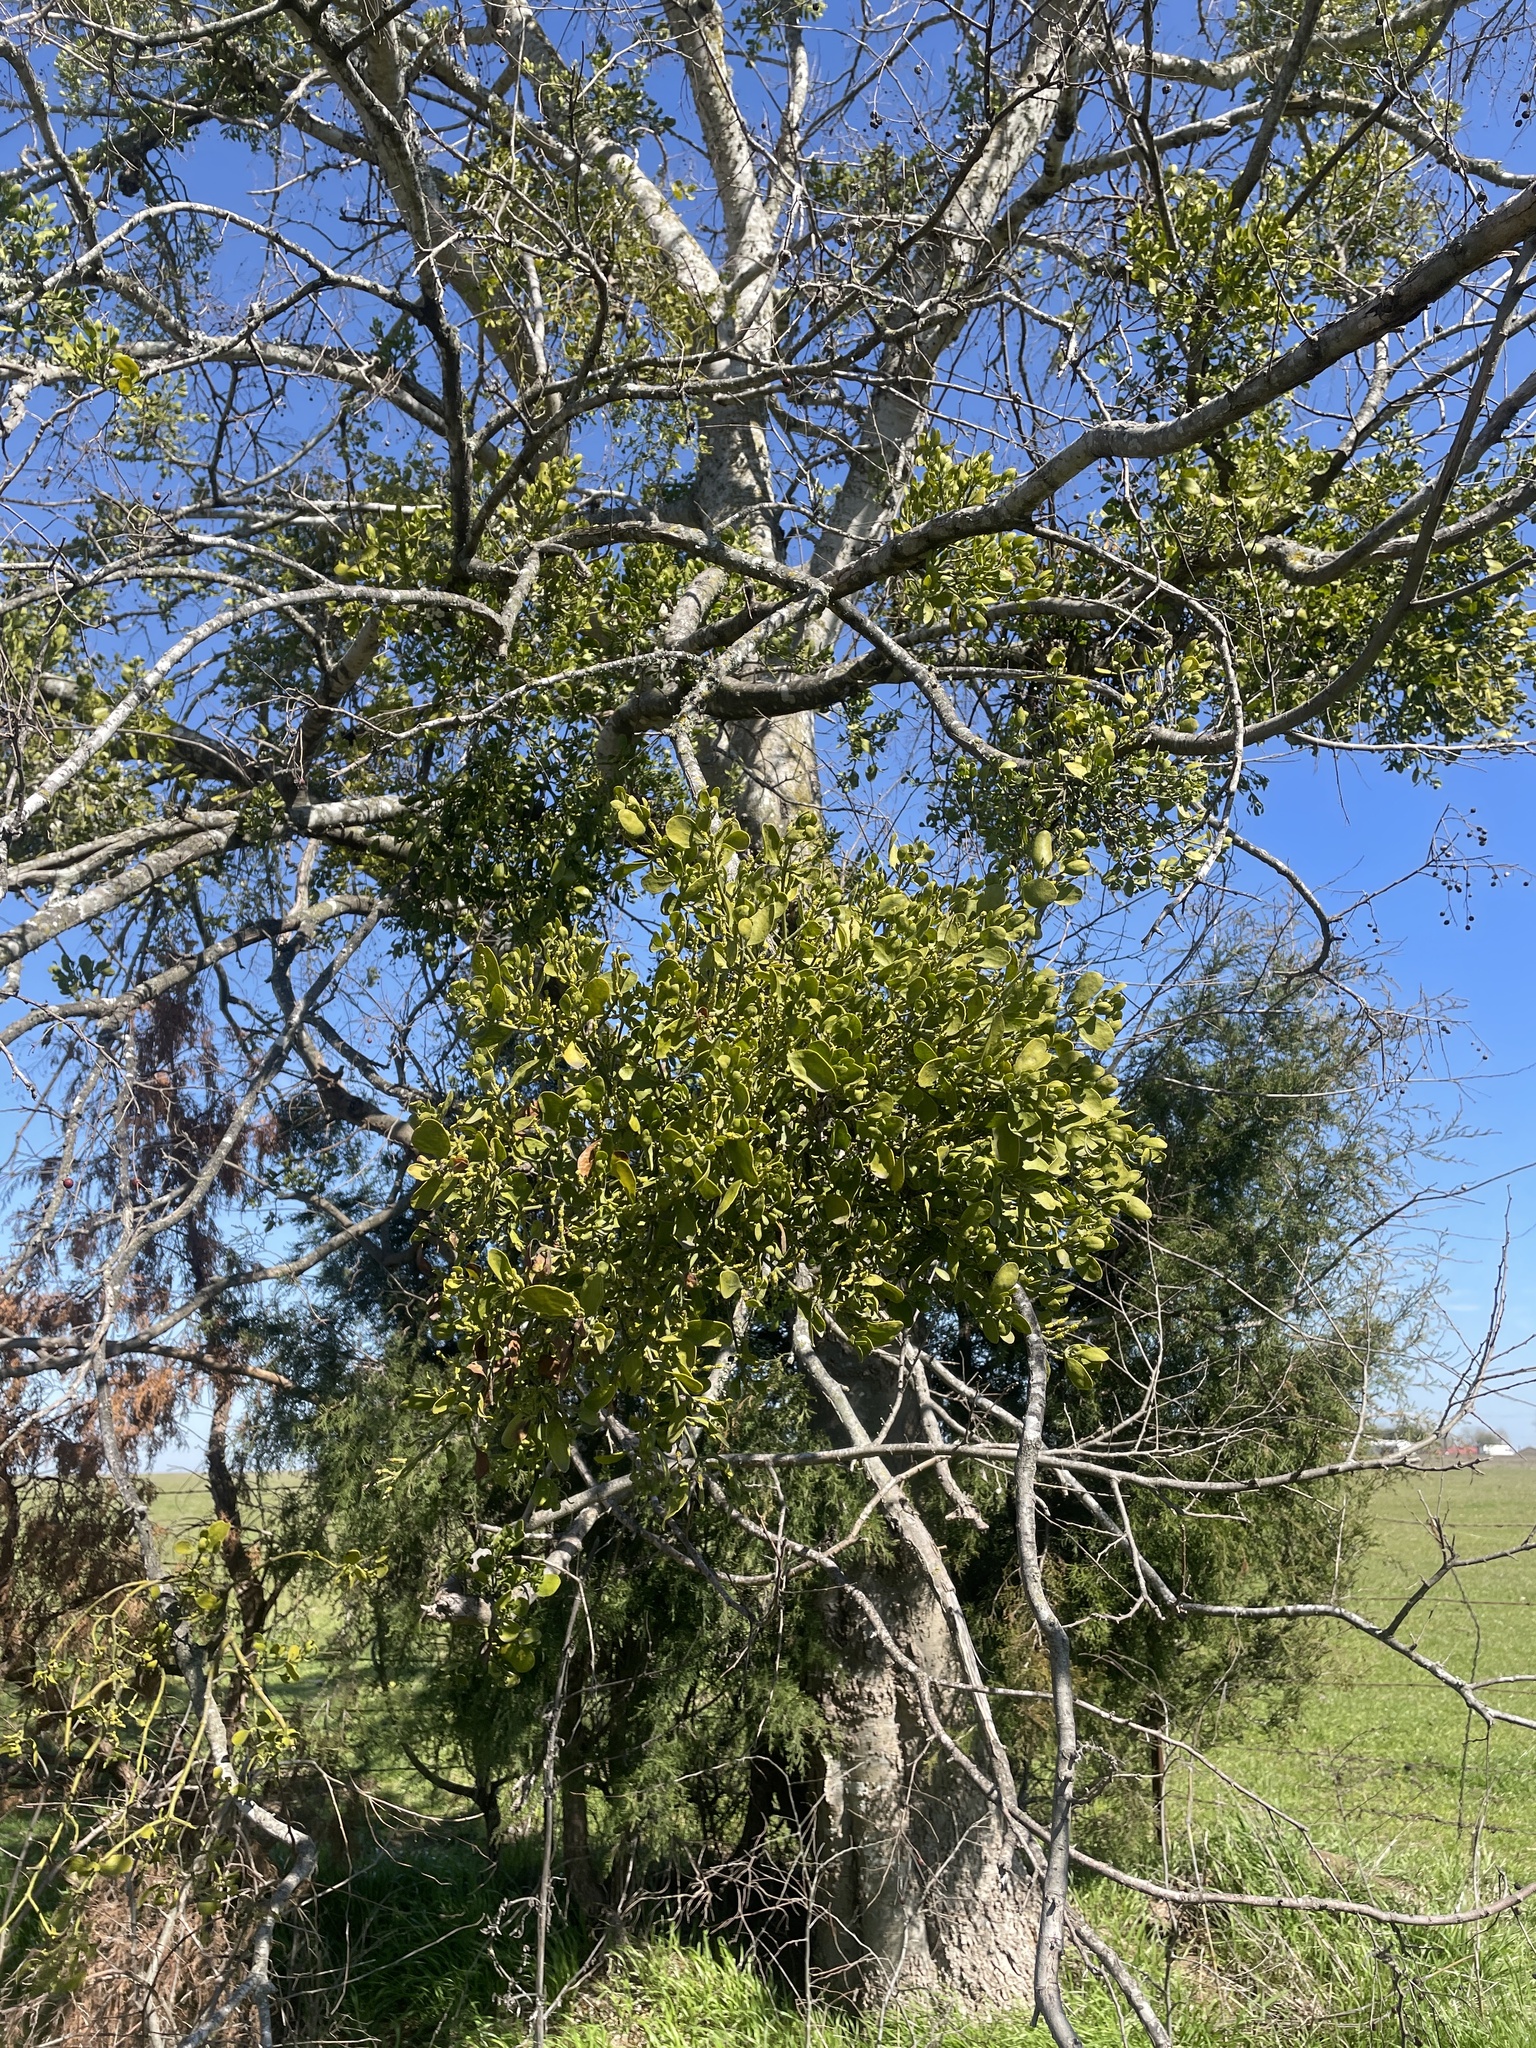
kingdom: Plantae
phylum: Tracheophyta
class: Magnoliopsida
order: Santalales
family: Viscaceae
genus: Phoradendron
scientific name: Phoradendron leucarpum
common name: Pacific mistletoe
